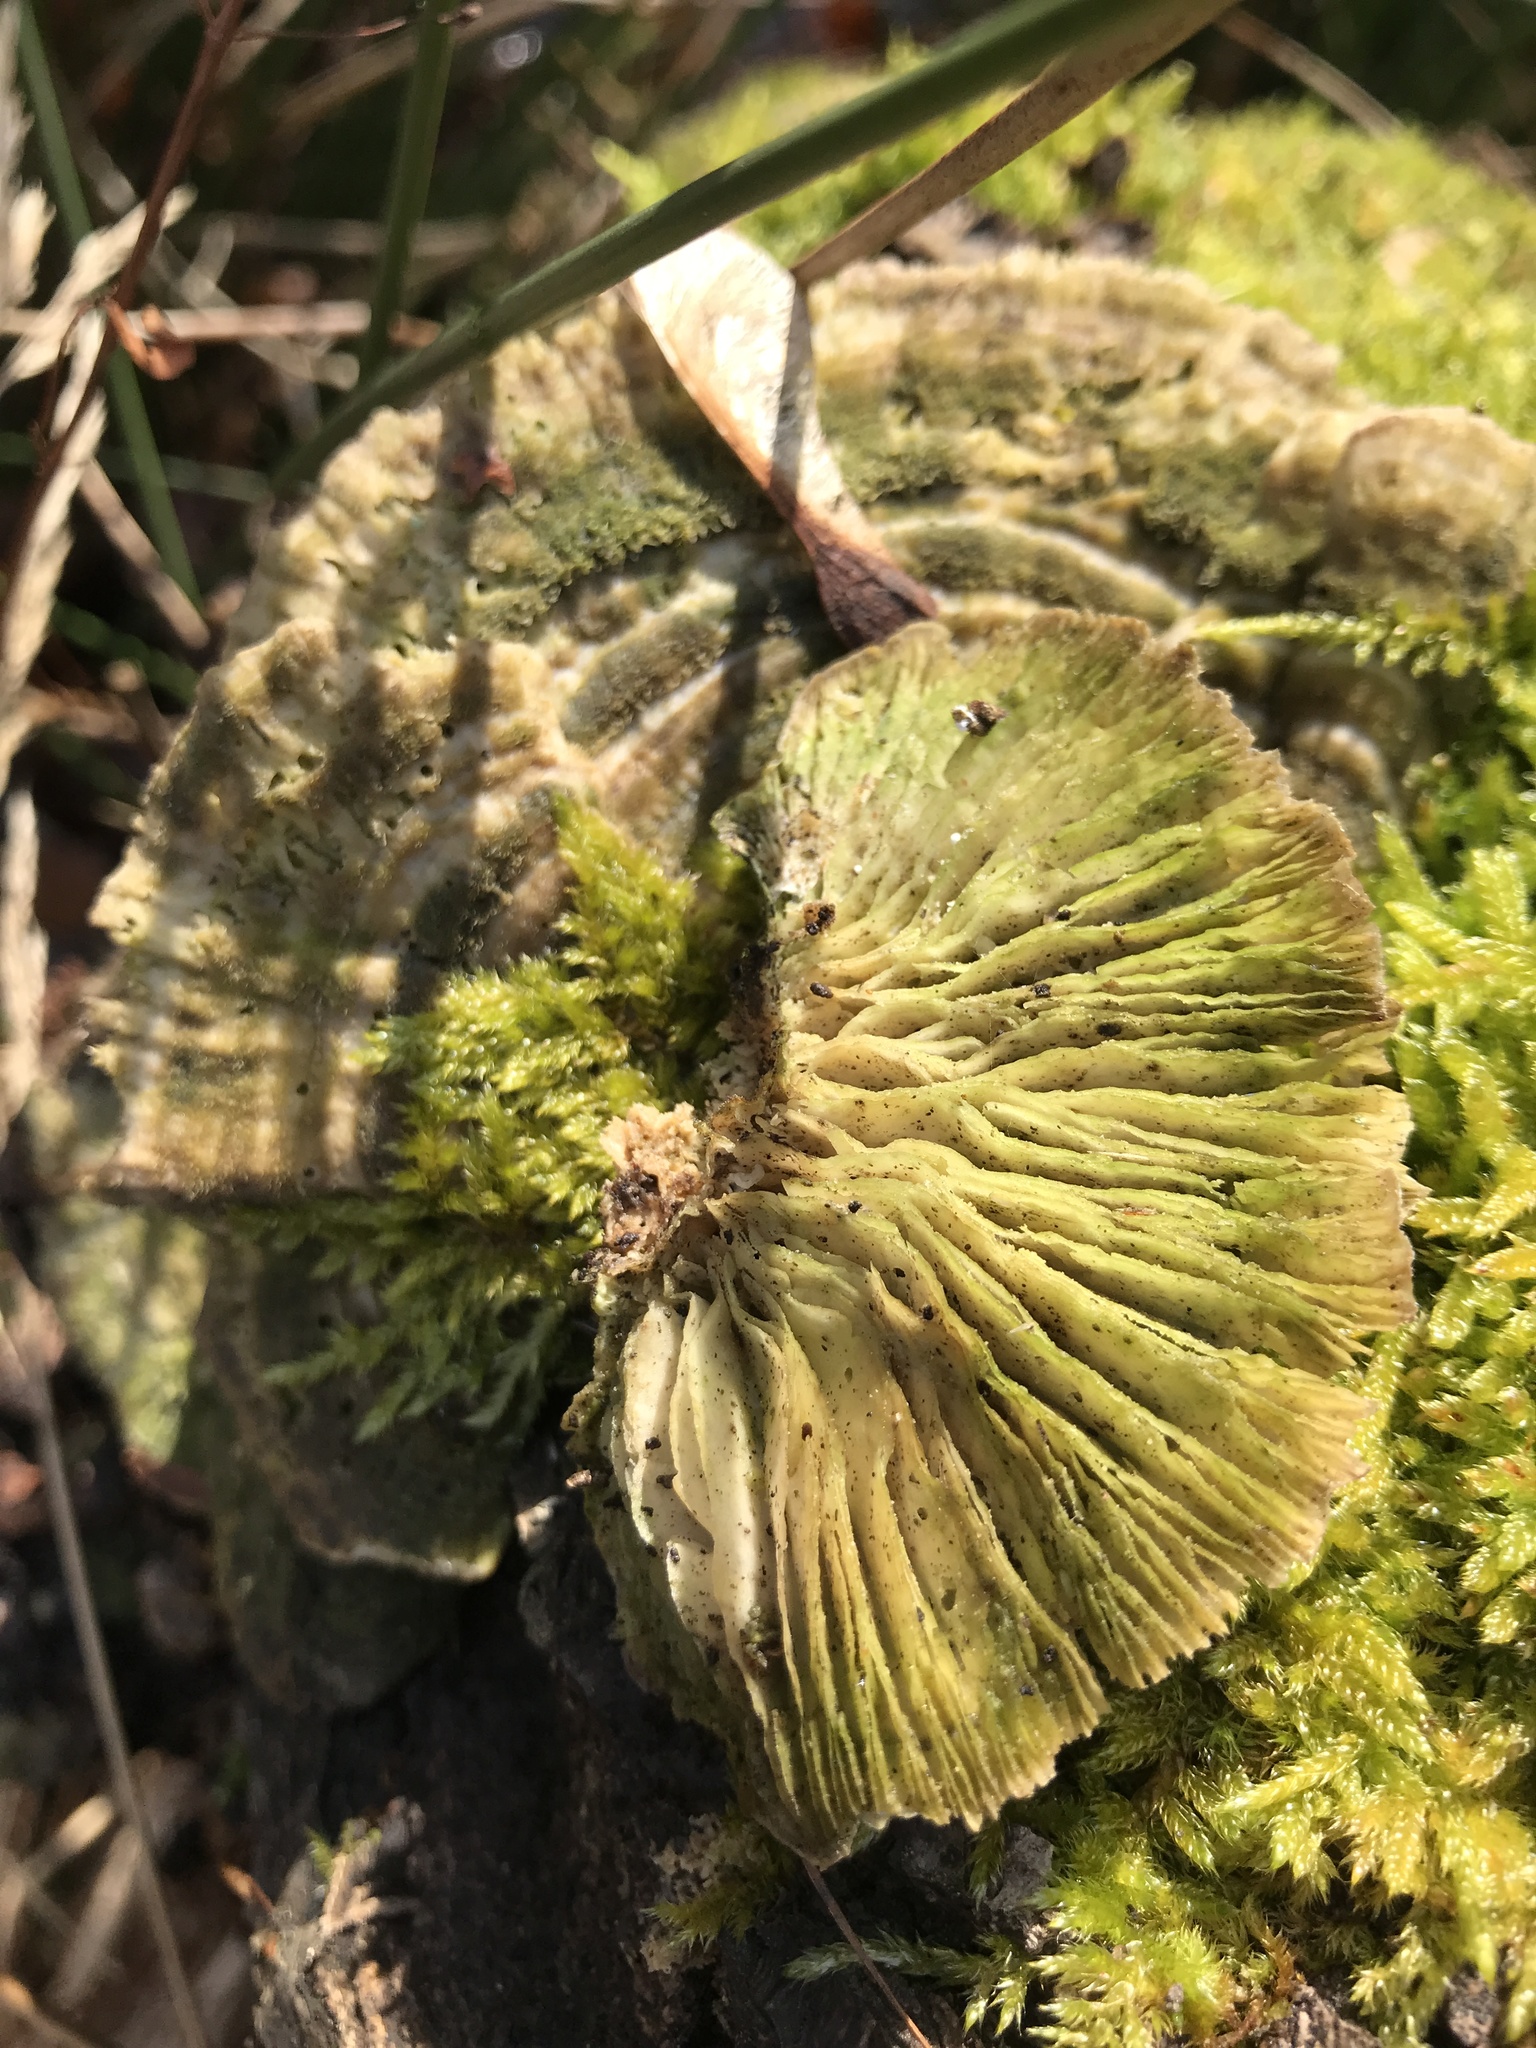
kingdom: Fungi
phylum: Basidiomycota
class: Agaricomycetes
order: Polyporales
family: Polyporaceae
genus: Lenzites
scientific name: Lenzites betulinus
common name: Birch mazegill
